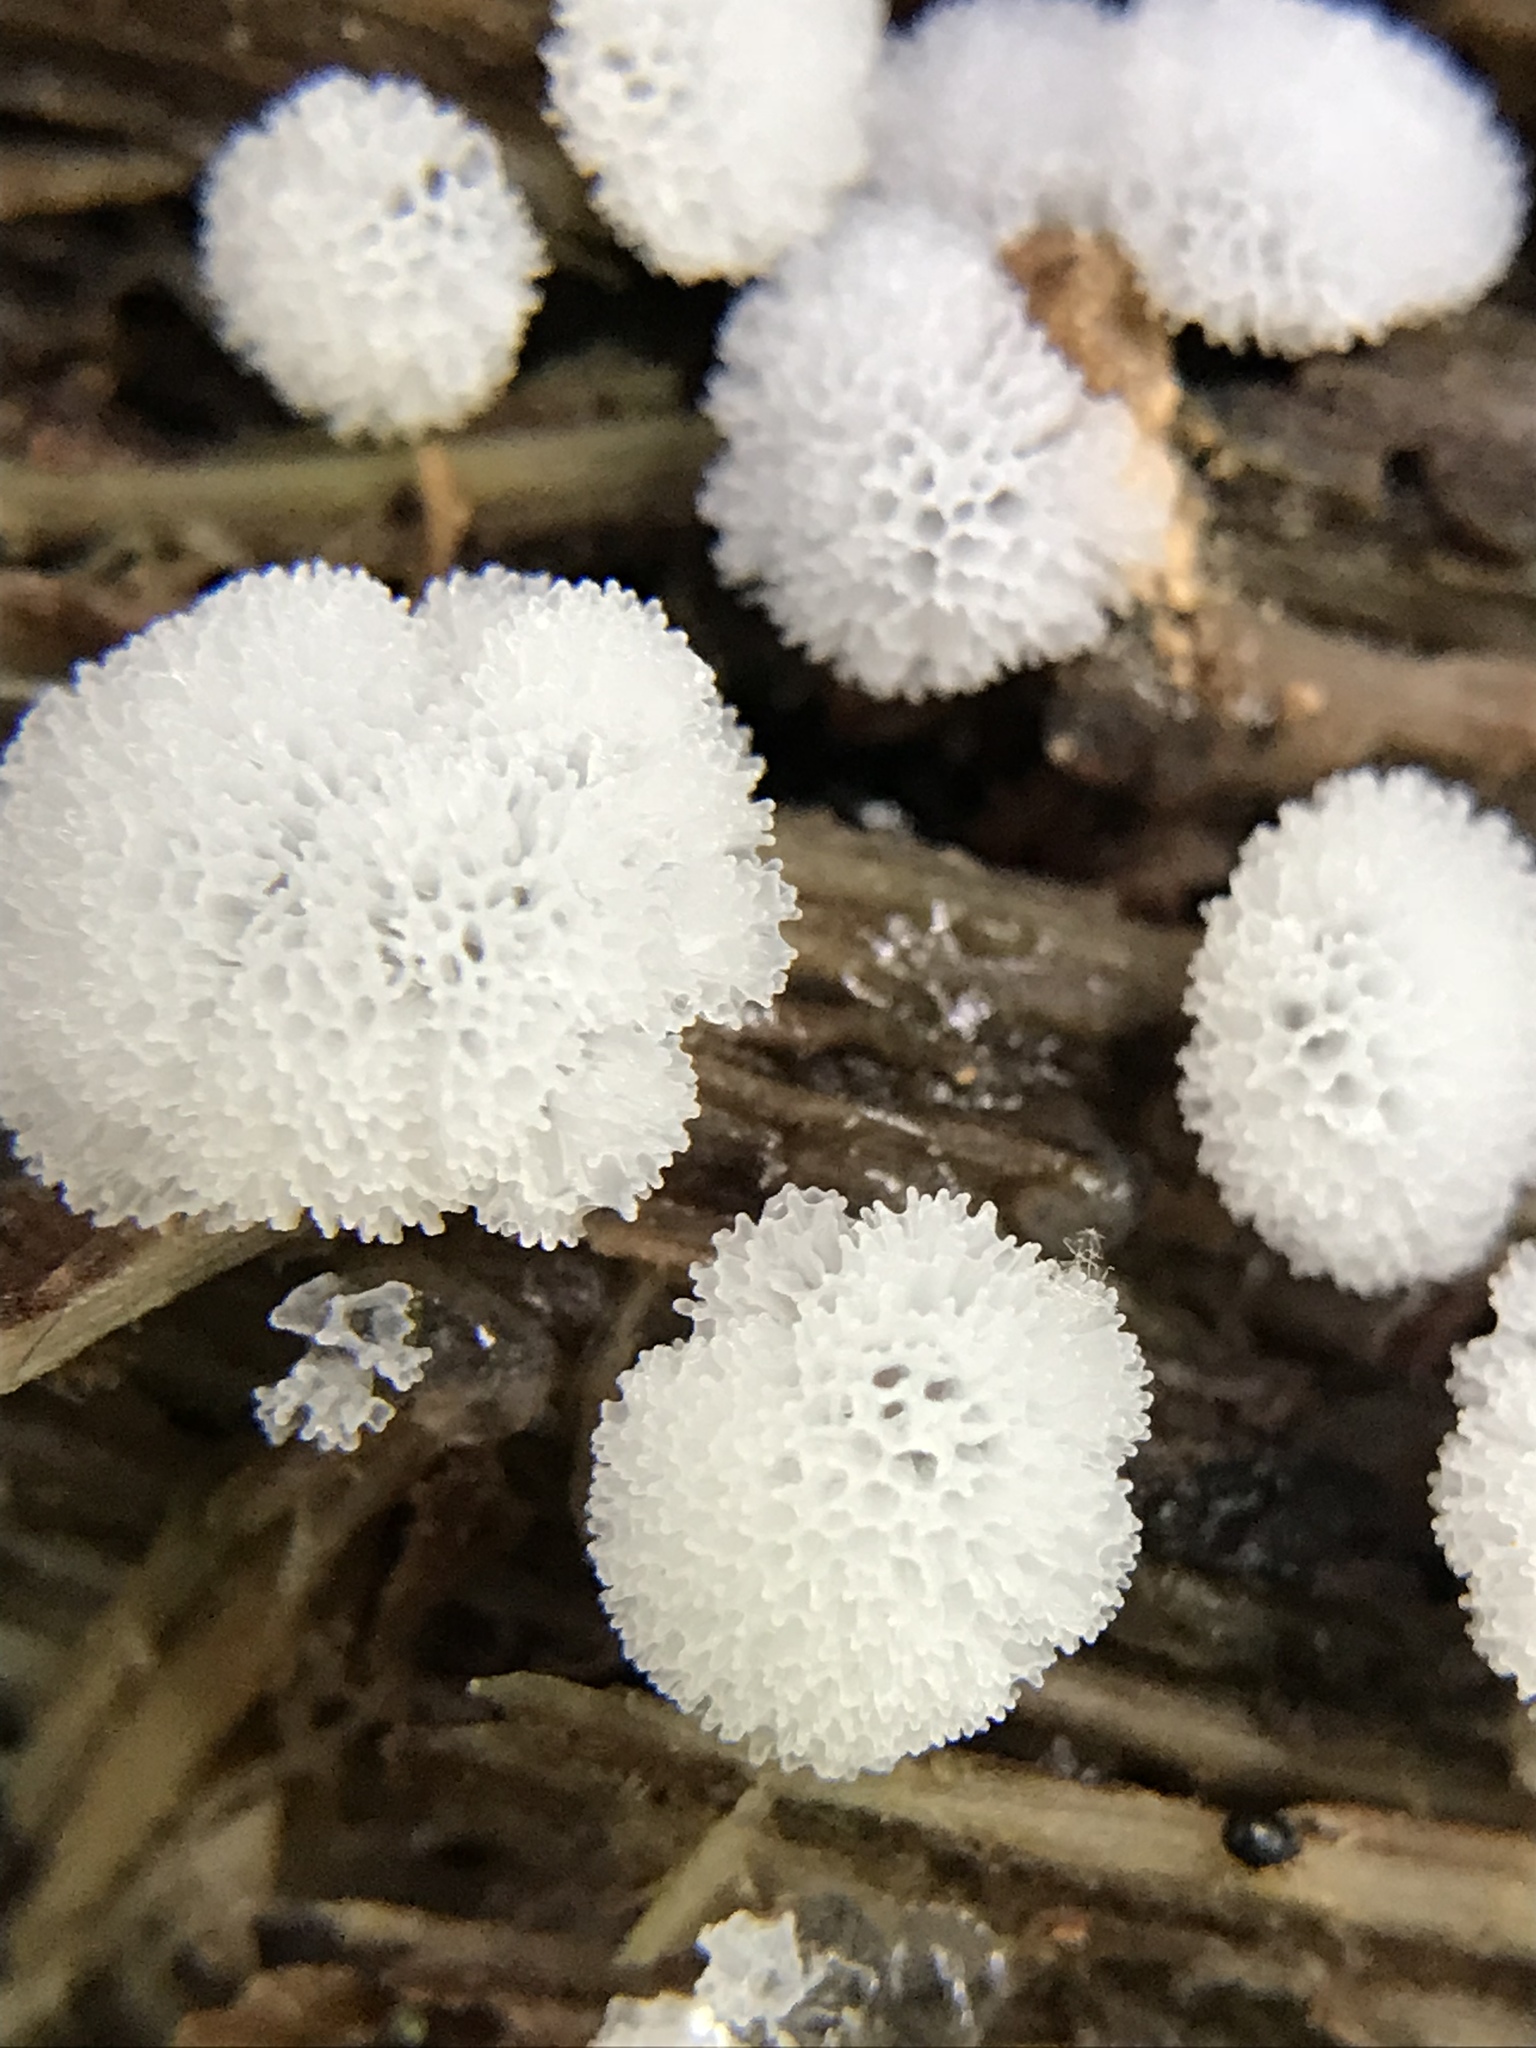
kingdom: Protozoa
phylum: Mycetozoa
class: Protosteliomycetes
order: Ceratiomyxales
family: Ceratiomyxaceae
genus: Ceratiomyxa
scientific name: Ceratiomyxa fruticulosa
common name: Honeycomb coral slime mold
